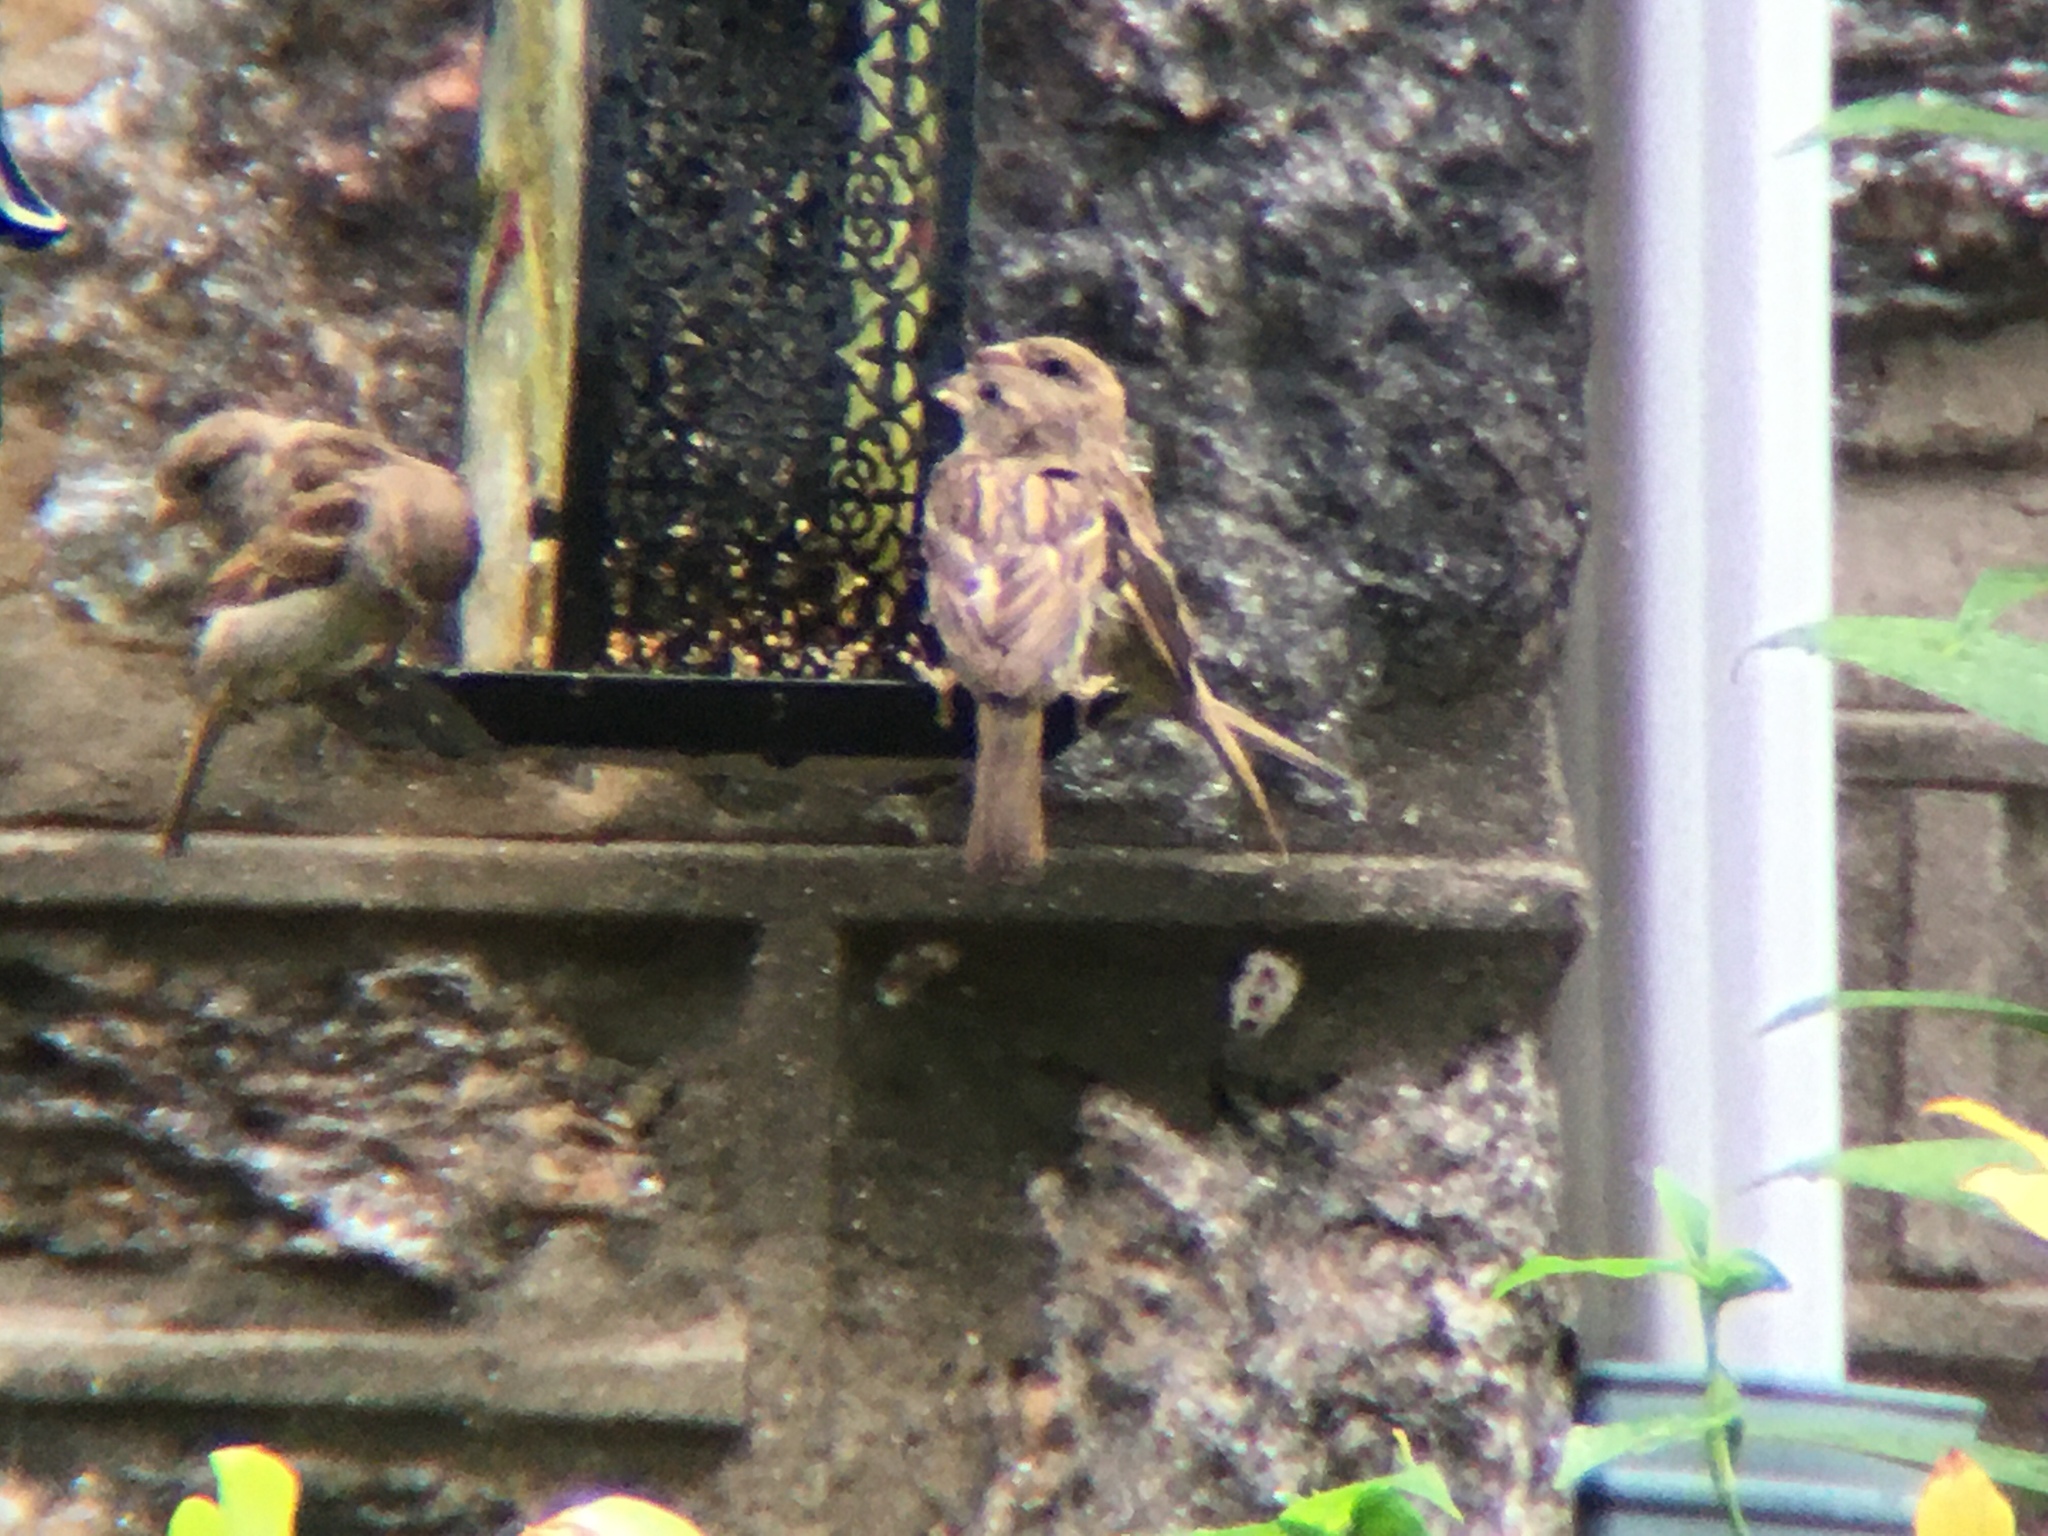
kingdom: Animalia
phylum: Chordata
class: Aves
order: Passeriformes
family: Passeridae
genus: Passer
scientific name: Passer domesticus
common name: House sparrow
